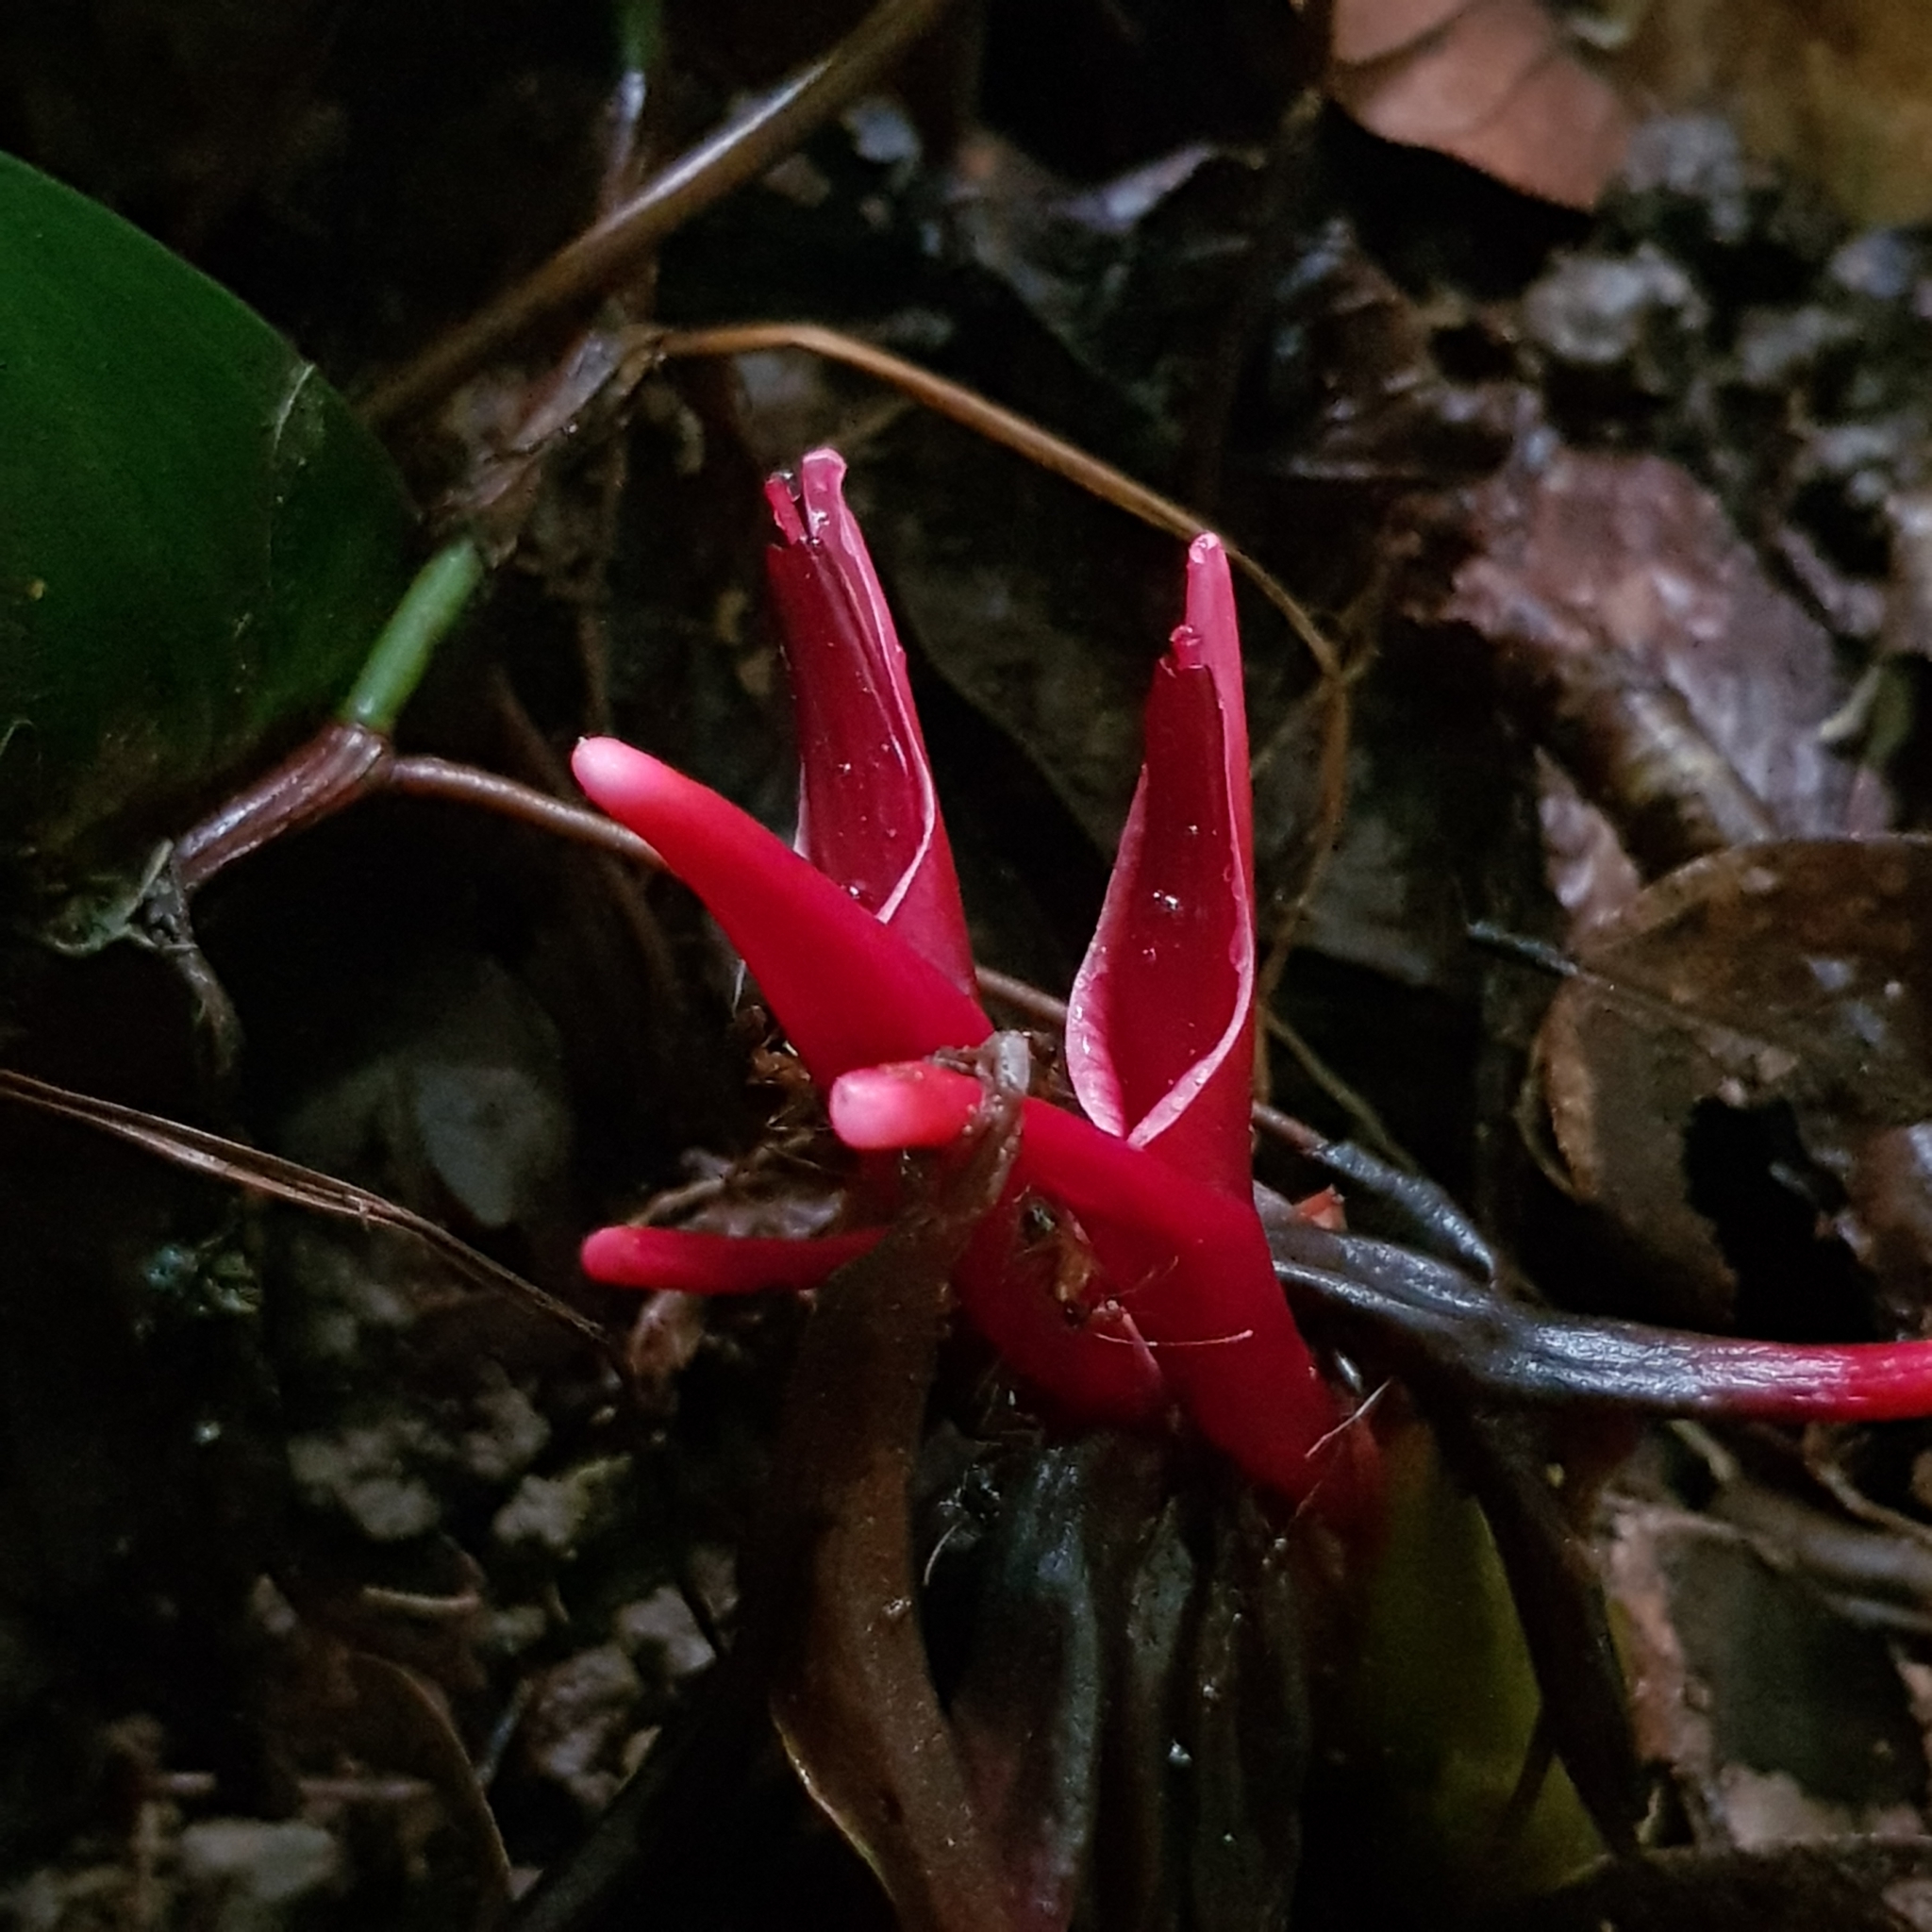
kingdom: Plantae
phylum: Tracheophyta
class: Liliopsida
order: Zingiberales
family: Zingiberaceae
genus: Hornstedtia
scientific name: Hornstedtia leonurus
